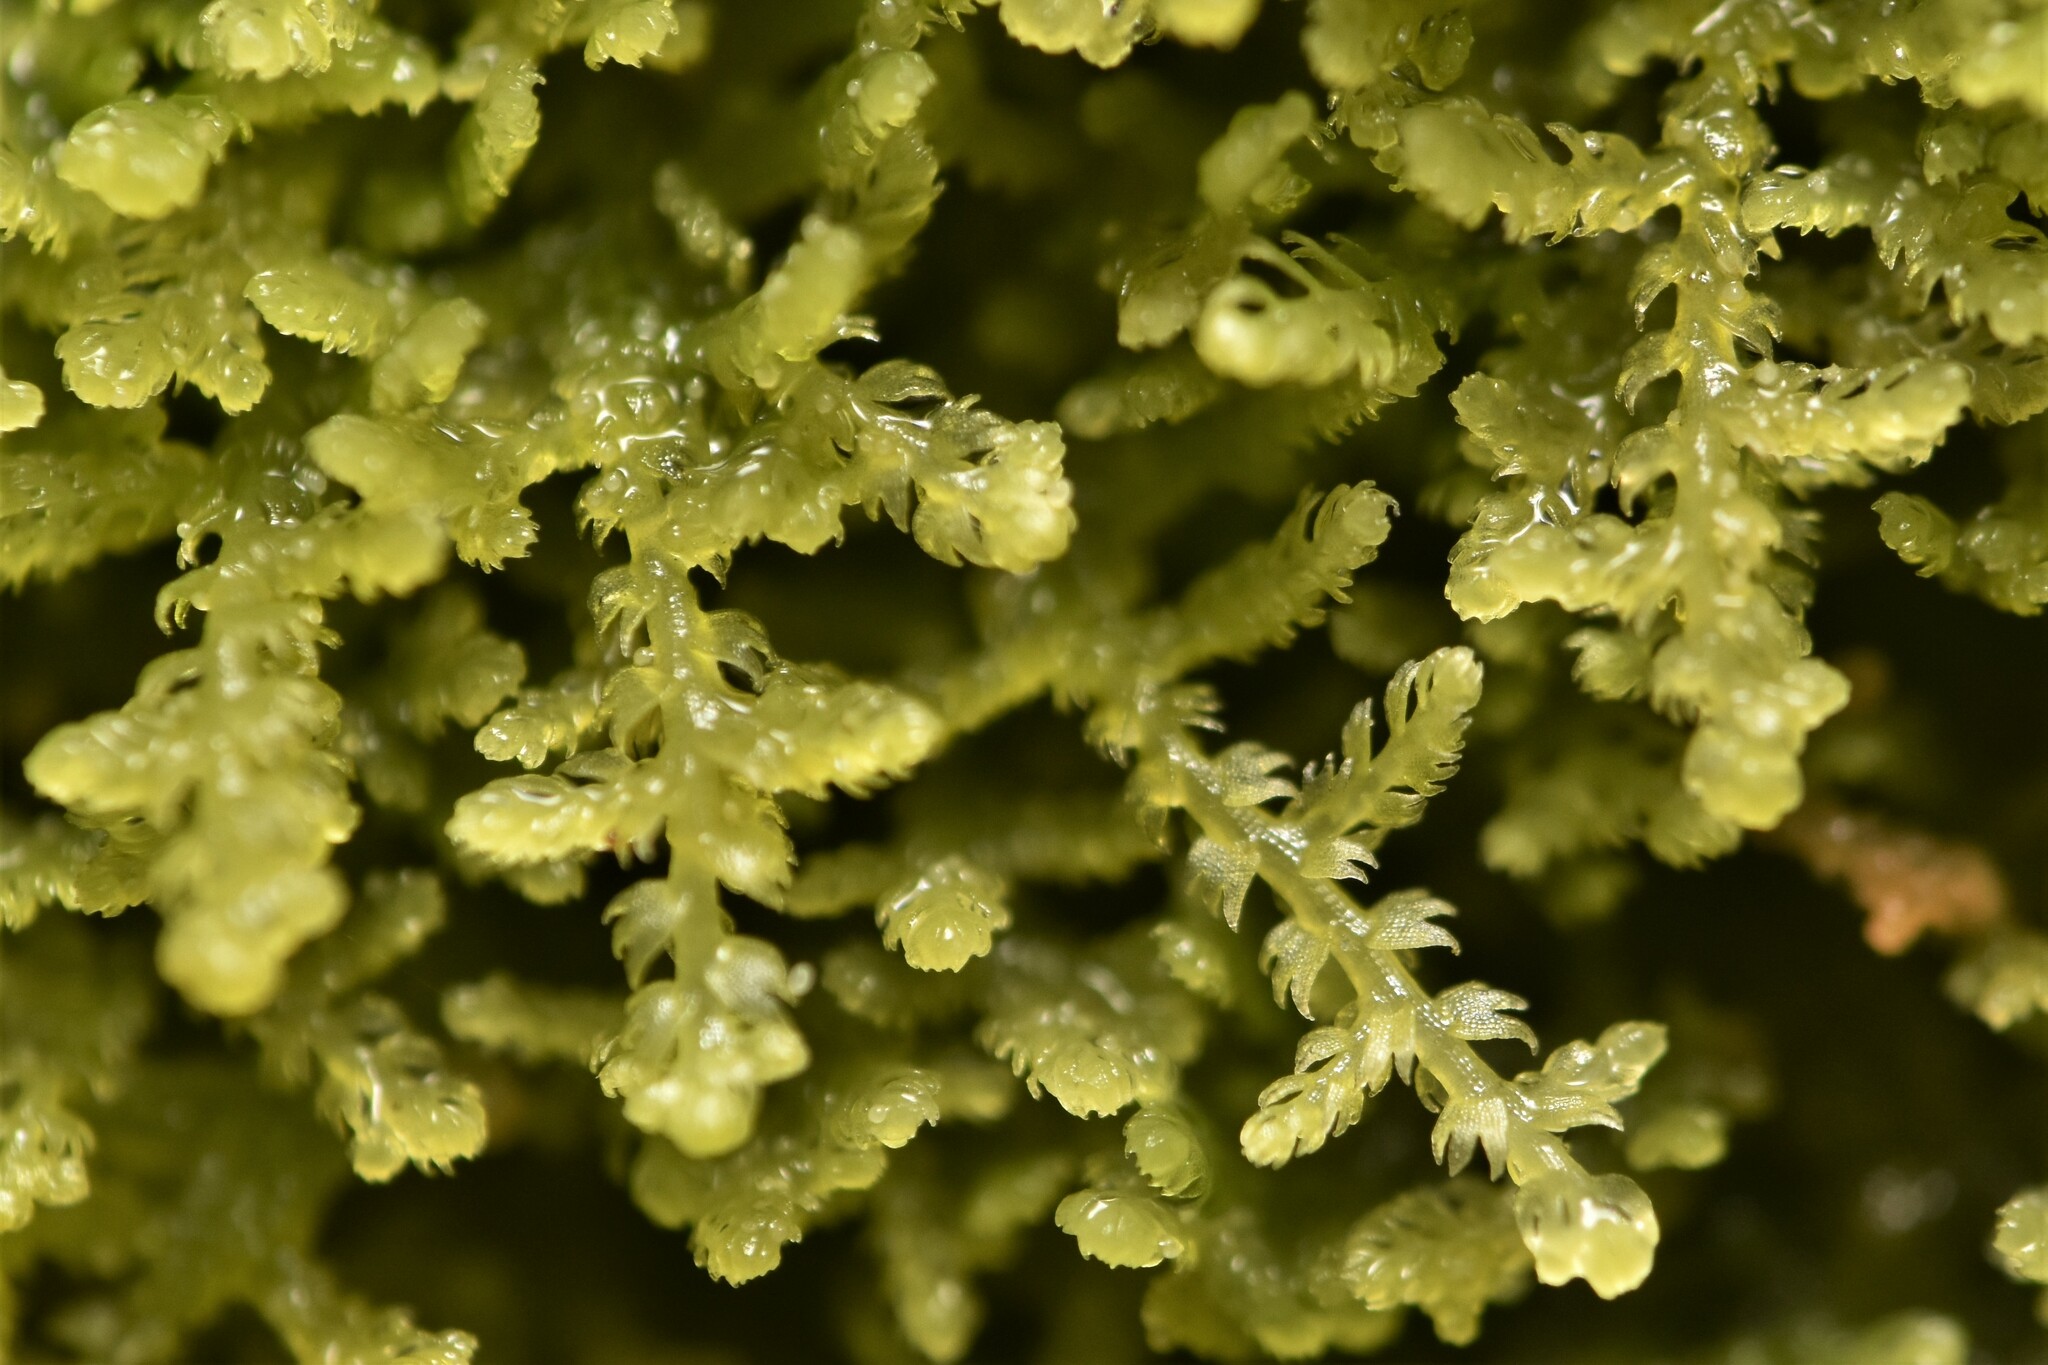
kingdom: Plantae
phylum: Marchantiophyta
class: Jungermanniopsida
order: Jungermanniales
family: Lepidoziaceae
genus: Lepidozia
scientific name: Lepidozia reptans
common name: Creeping fingerwort
